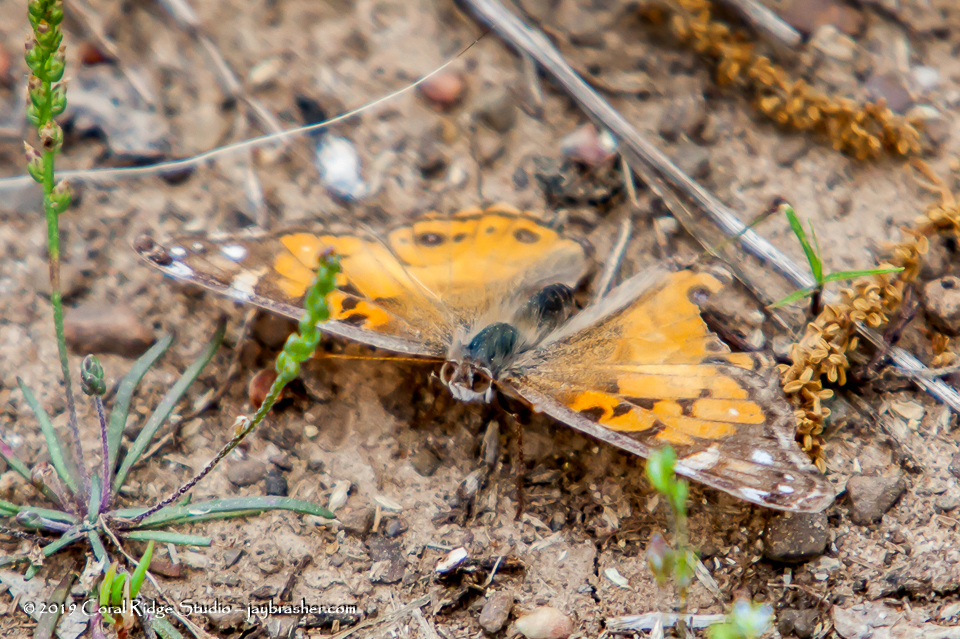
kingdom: Animalia
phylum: Arthropoda
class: Insecta
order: Lepidoptera
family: Nymphalidae
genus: Vanessa
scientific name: Vanessa virginiensis
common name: American lady
